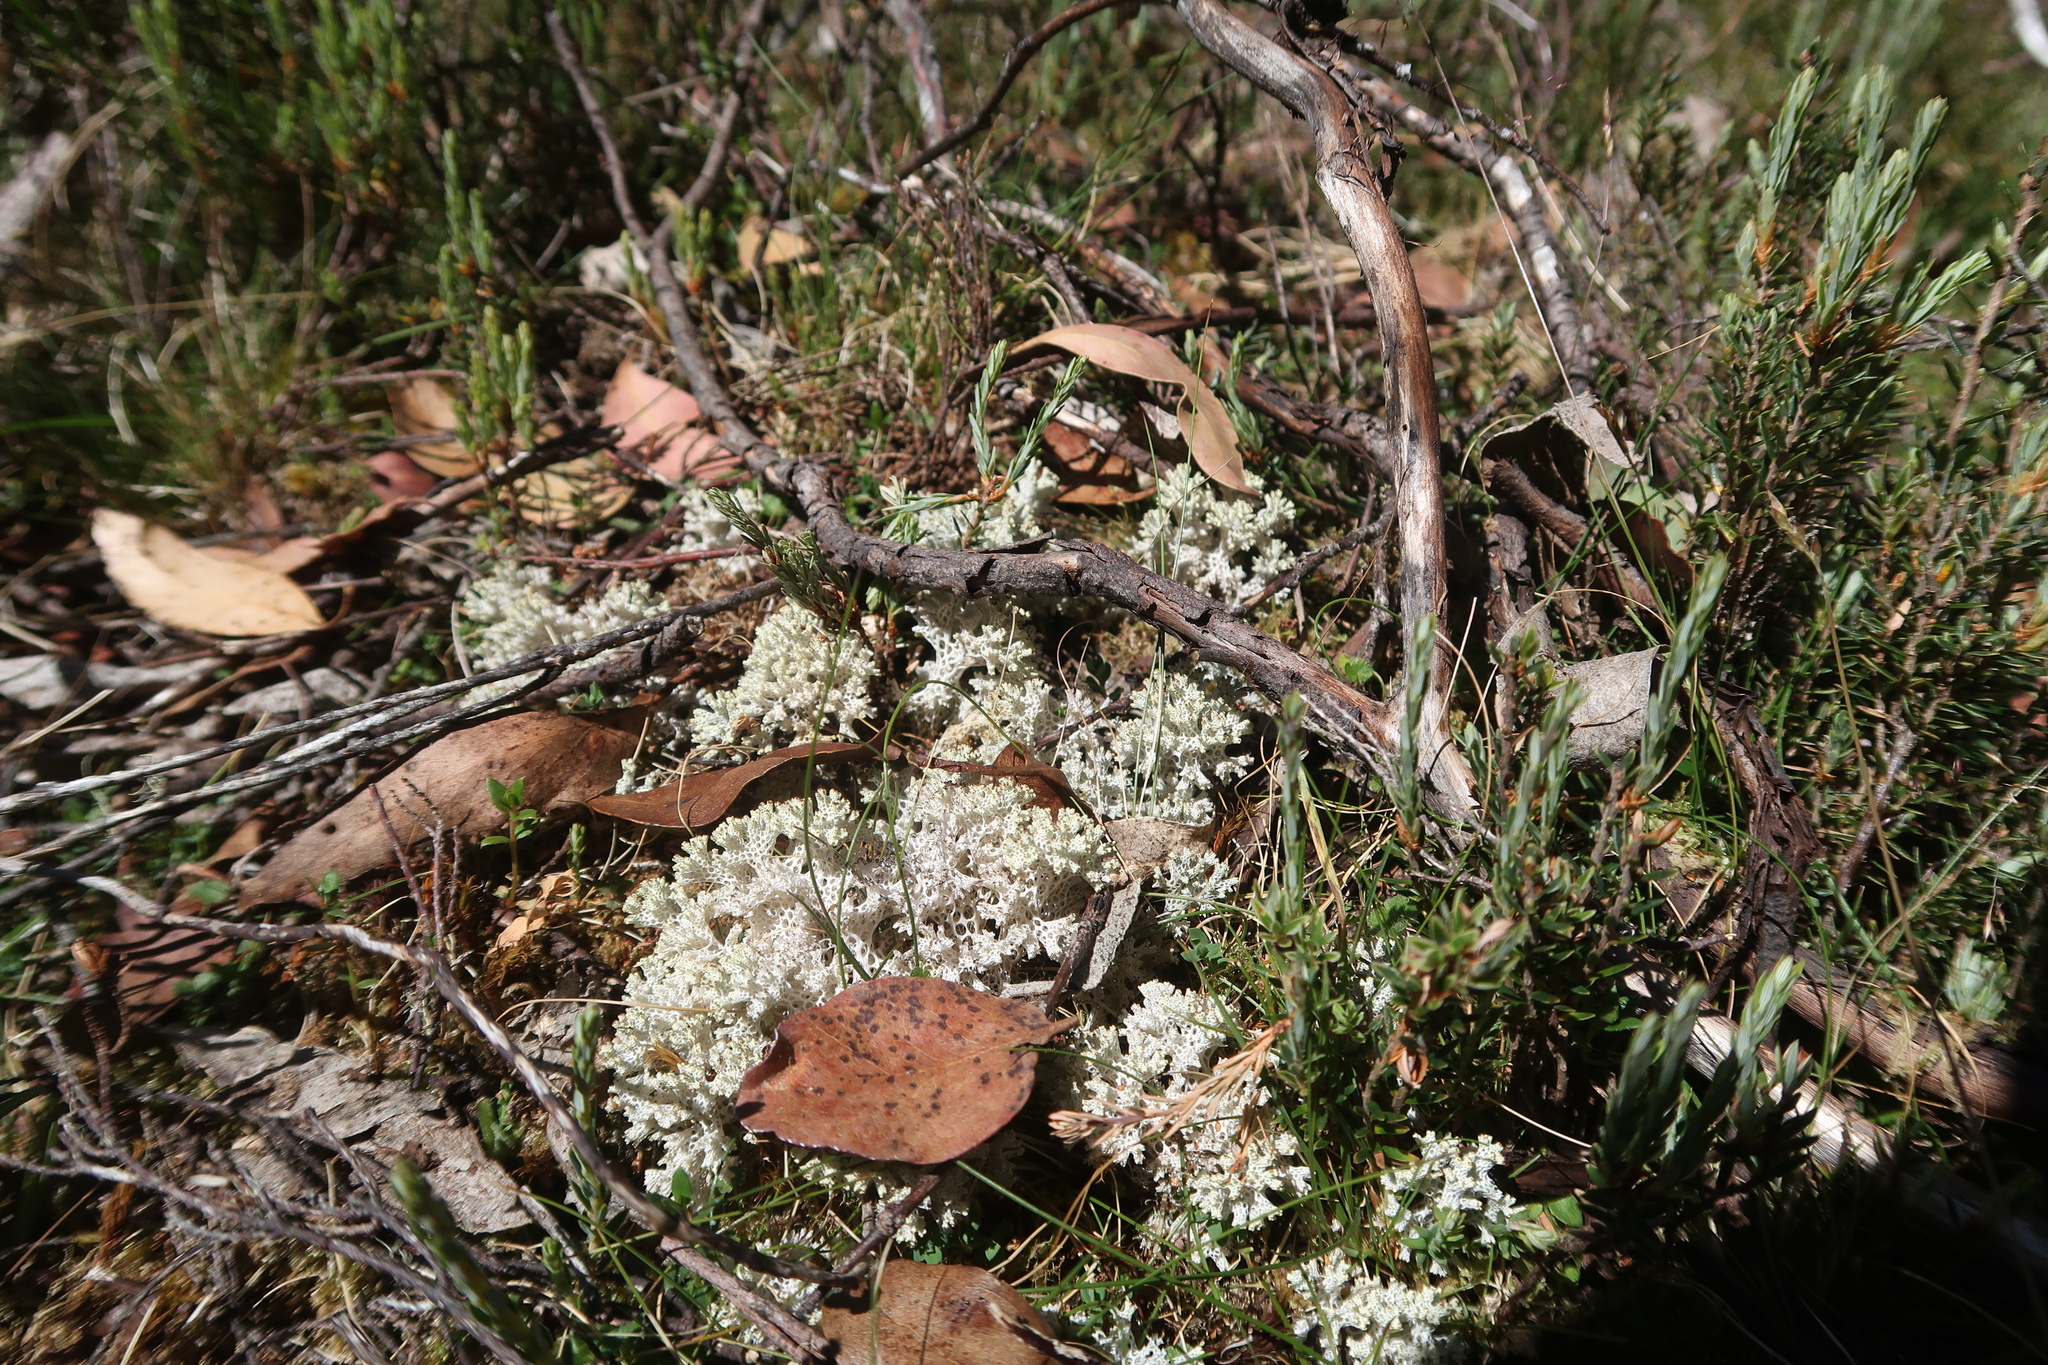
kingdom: Fungi
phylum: Ascomycota
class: Lecanoromycetes
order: Lecanorales
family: Cladoniaceae
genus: Pulchrocladia
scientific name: Pulchrocladia retipora
